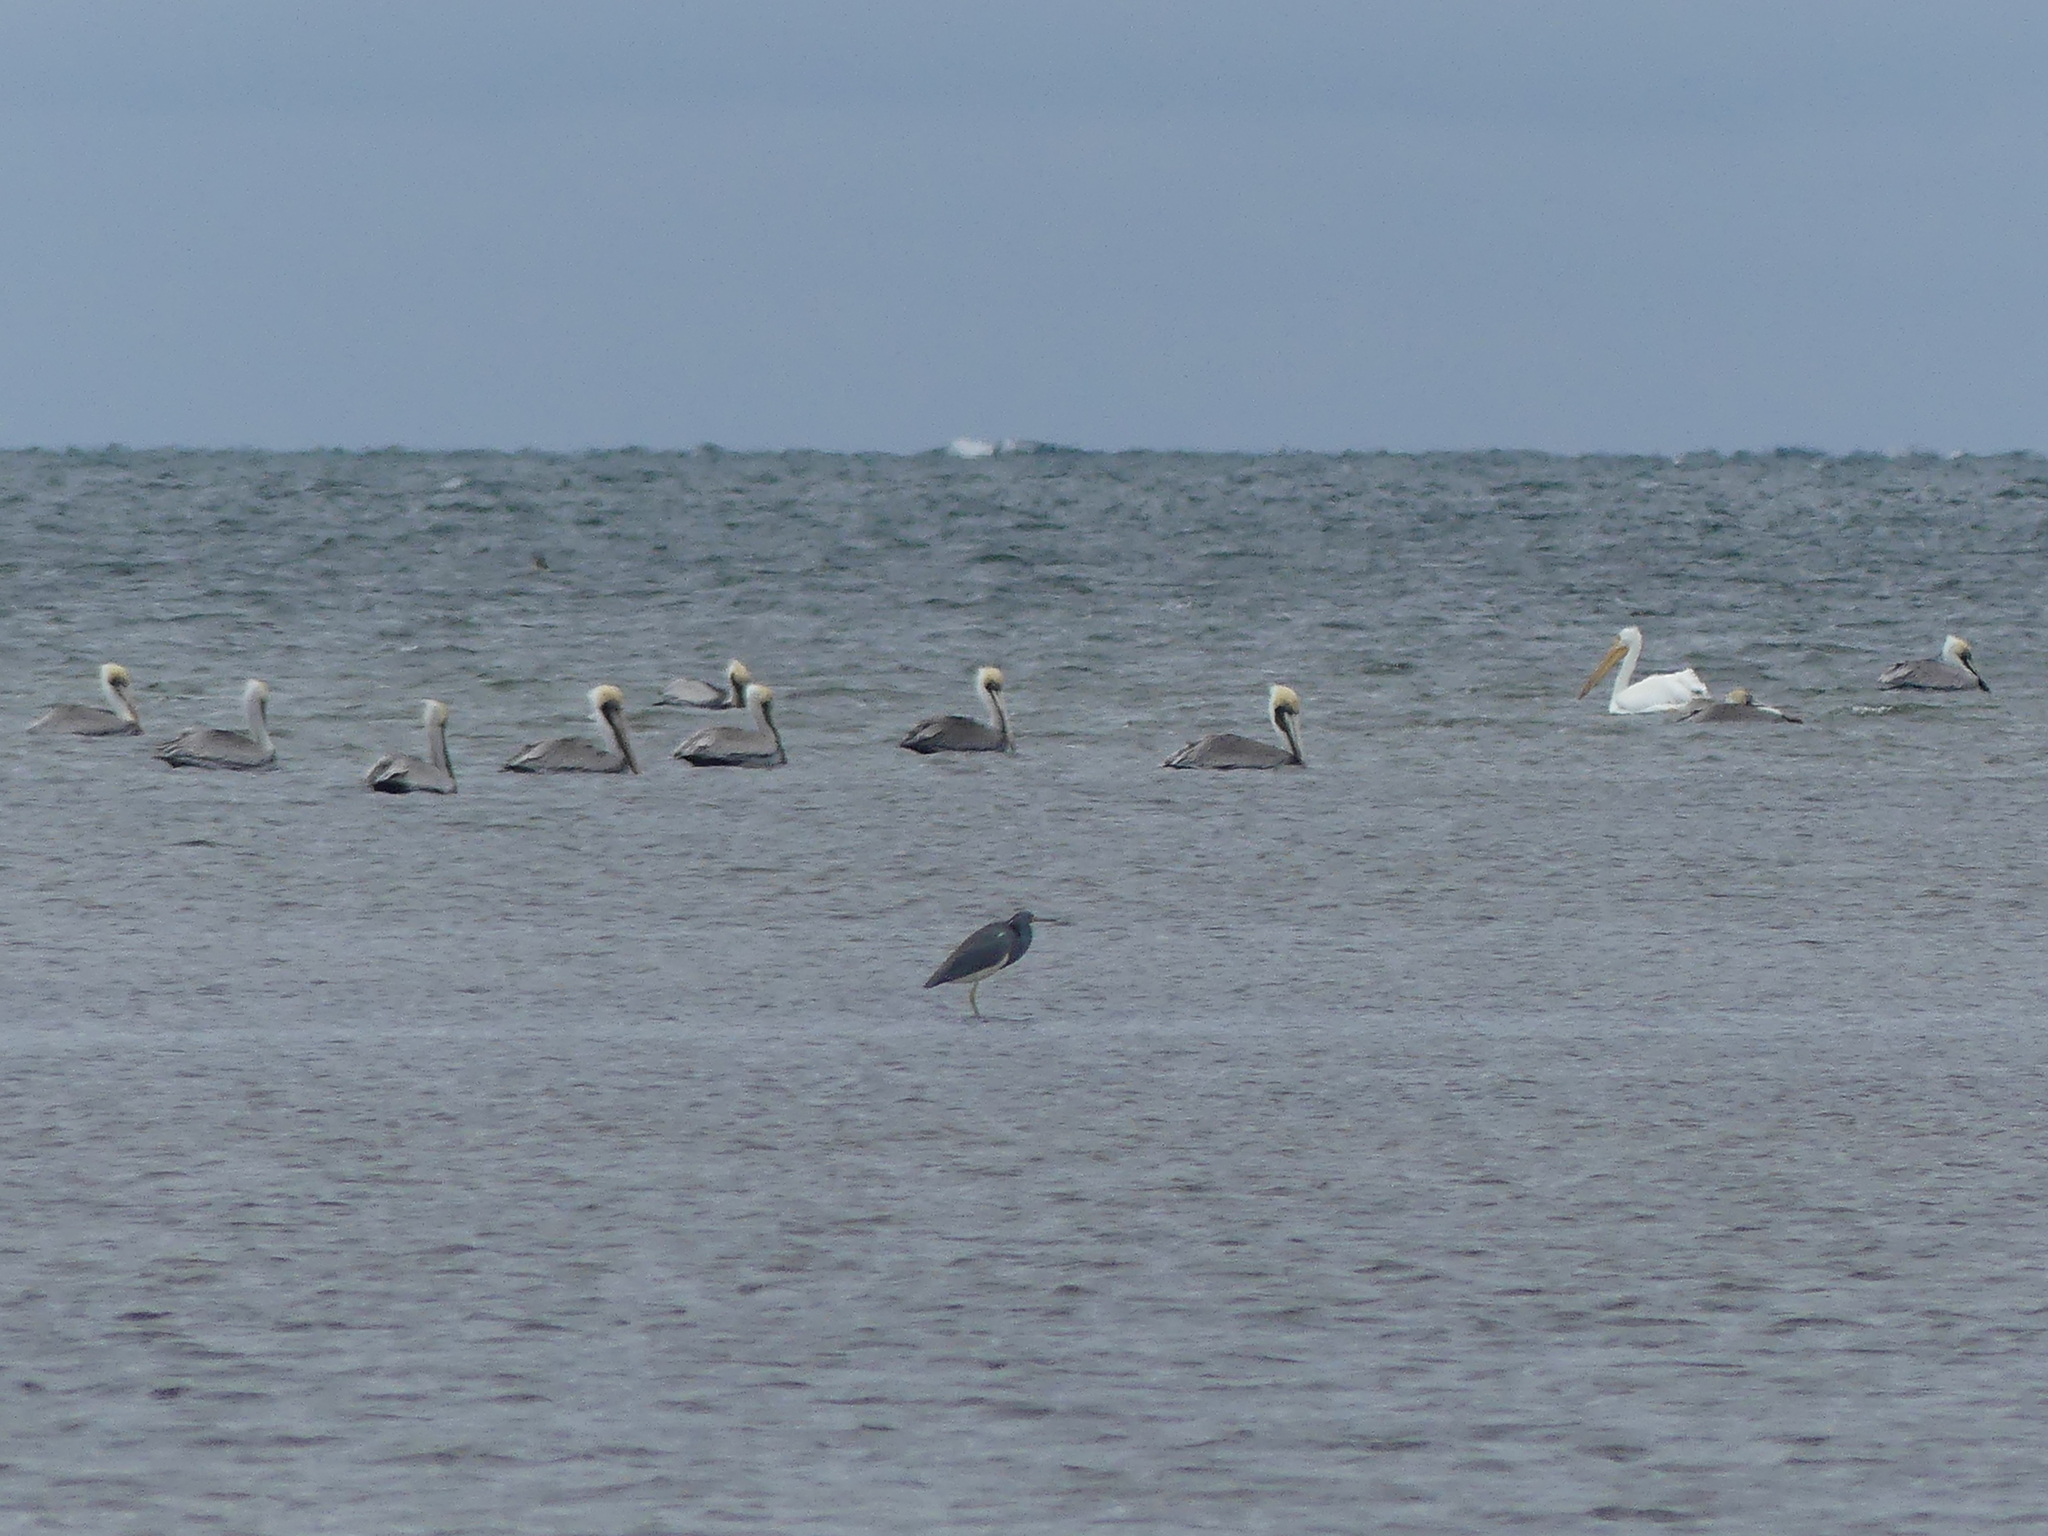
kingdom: Animalia
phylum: Chordata
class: Aves
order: Pelecaniformes
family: Ardeidae
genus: Egretta
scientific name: Egretta tricolor
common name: Tricolored heron
